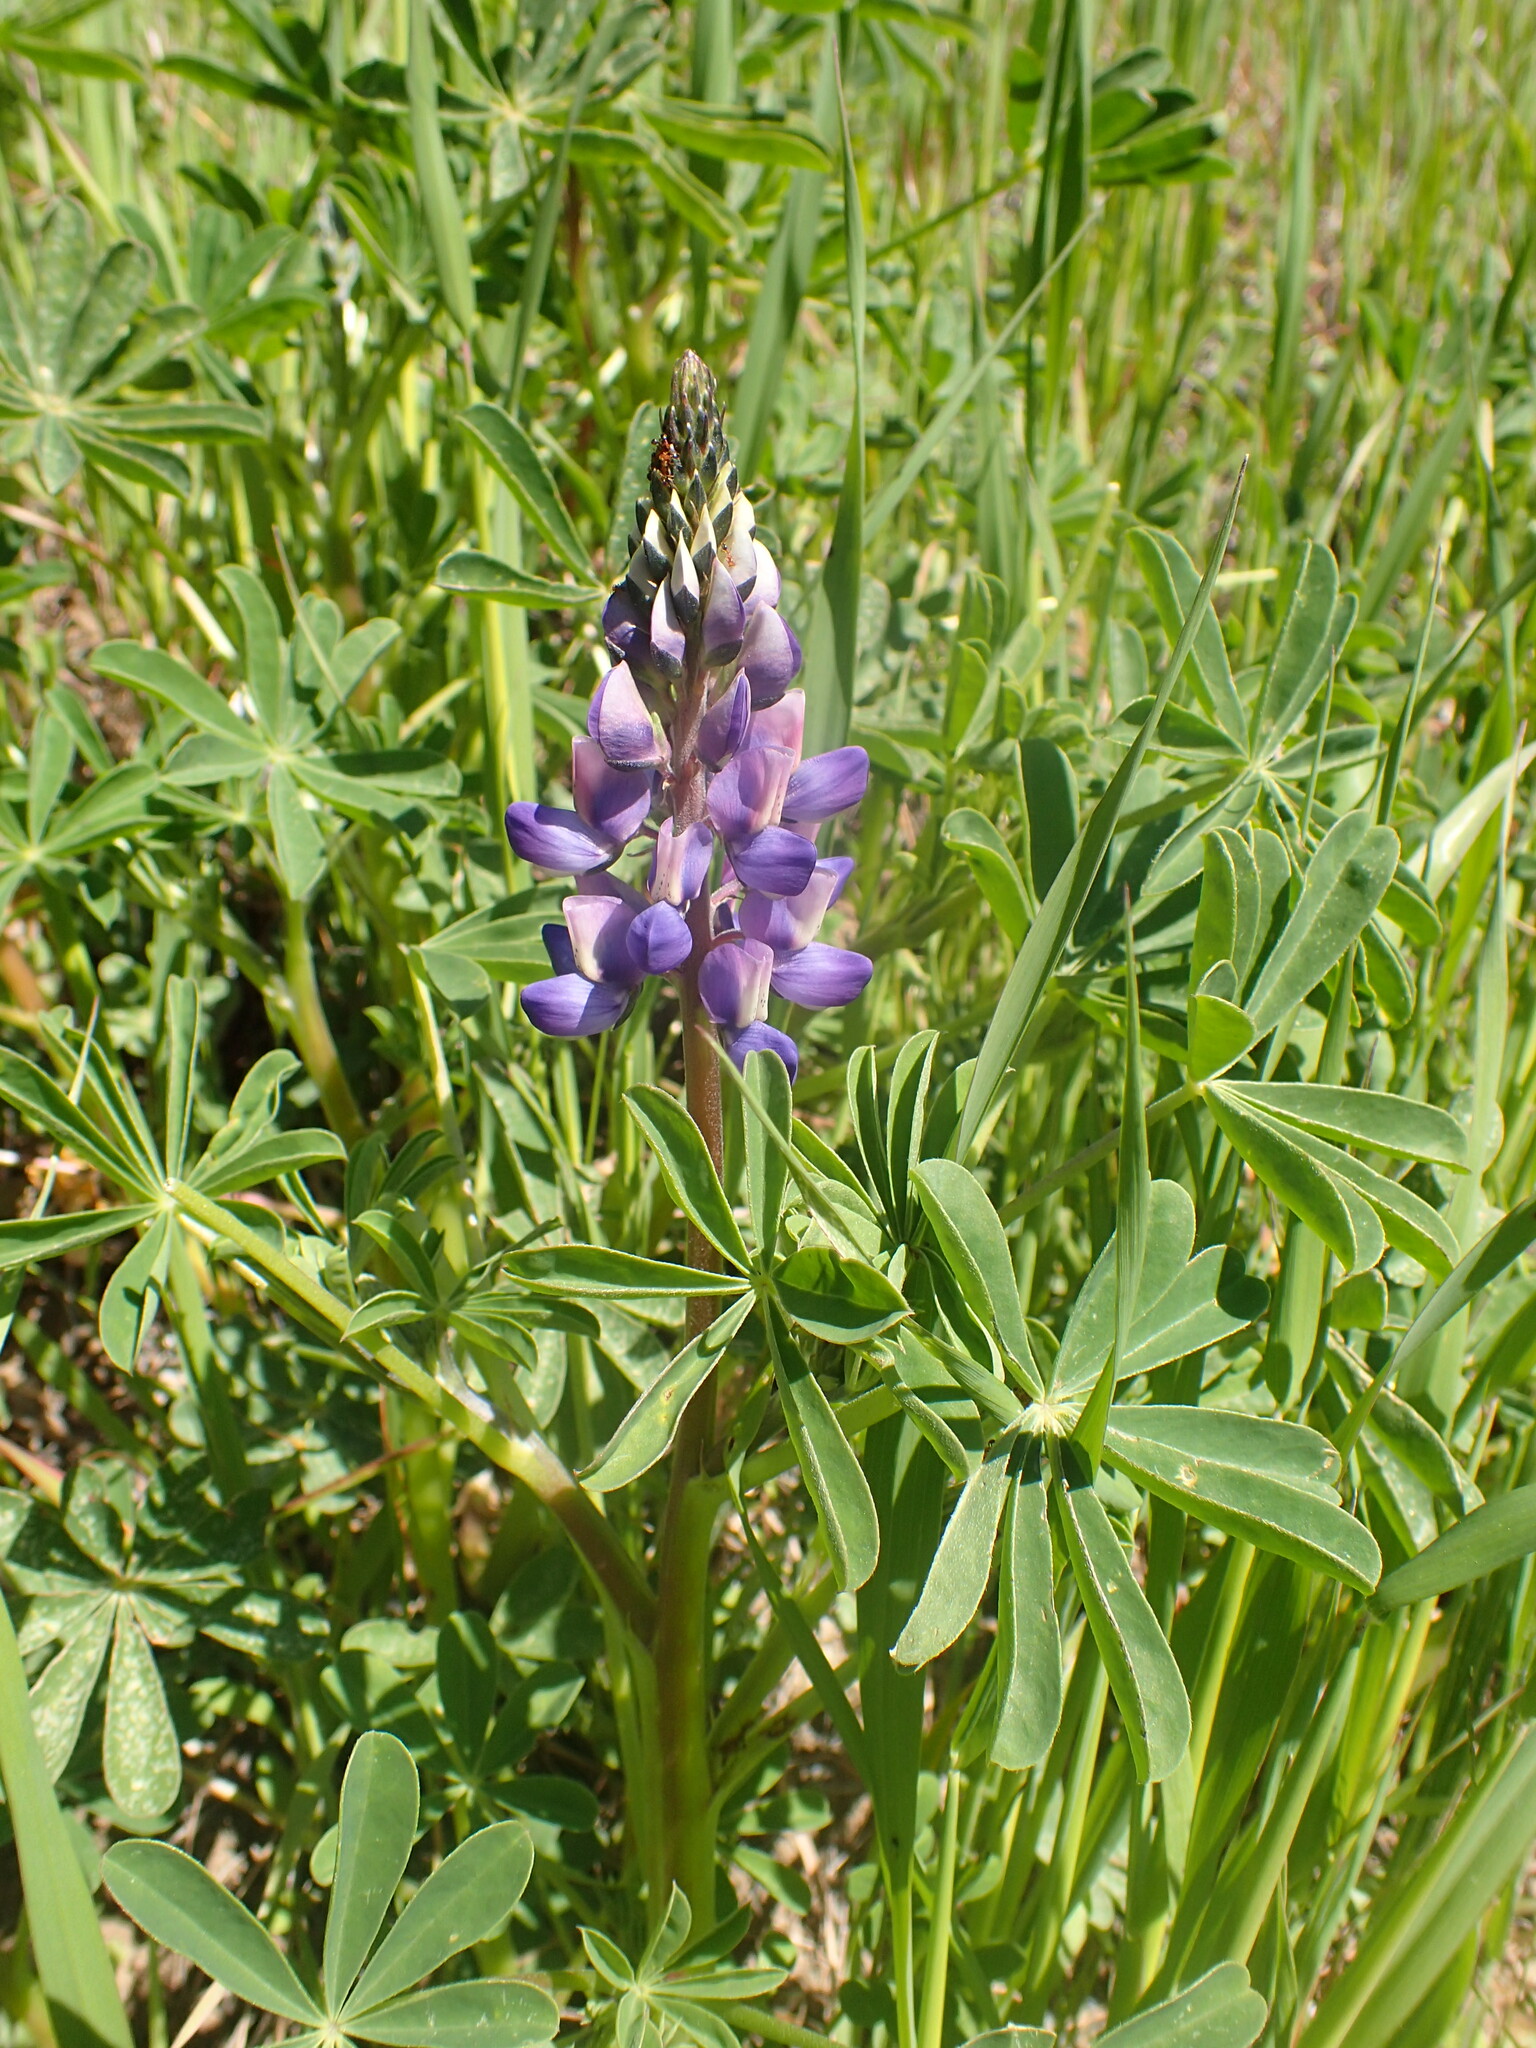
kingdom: Plantae
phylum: Tracheophyta
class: Magnoliopsida
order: Fabales
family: Fabaceae
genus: Lupinus
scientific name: Lupinus succulentus
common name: Arroyo lupine
